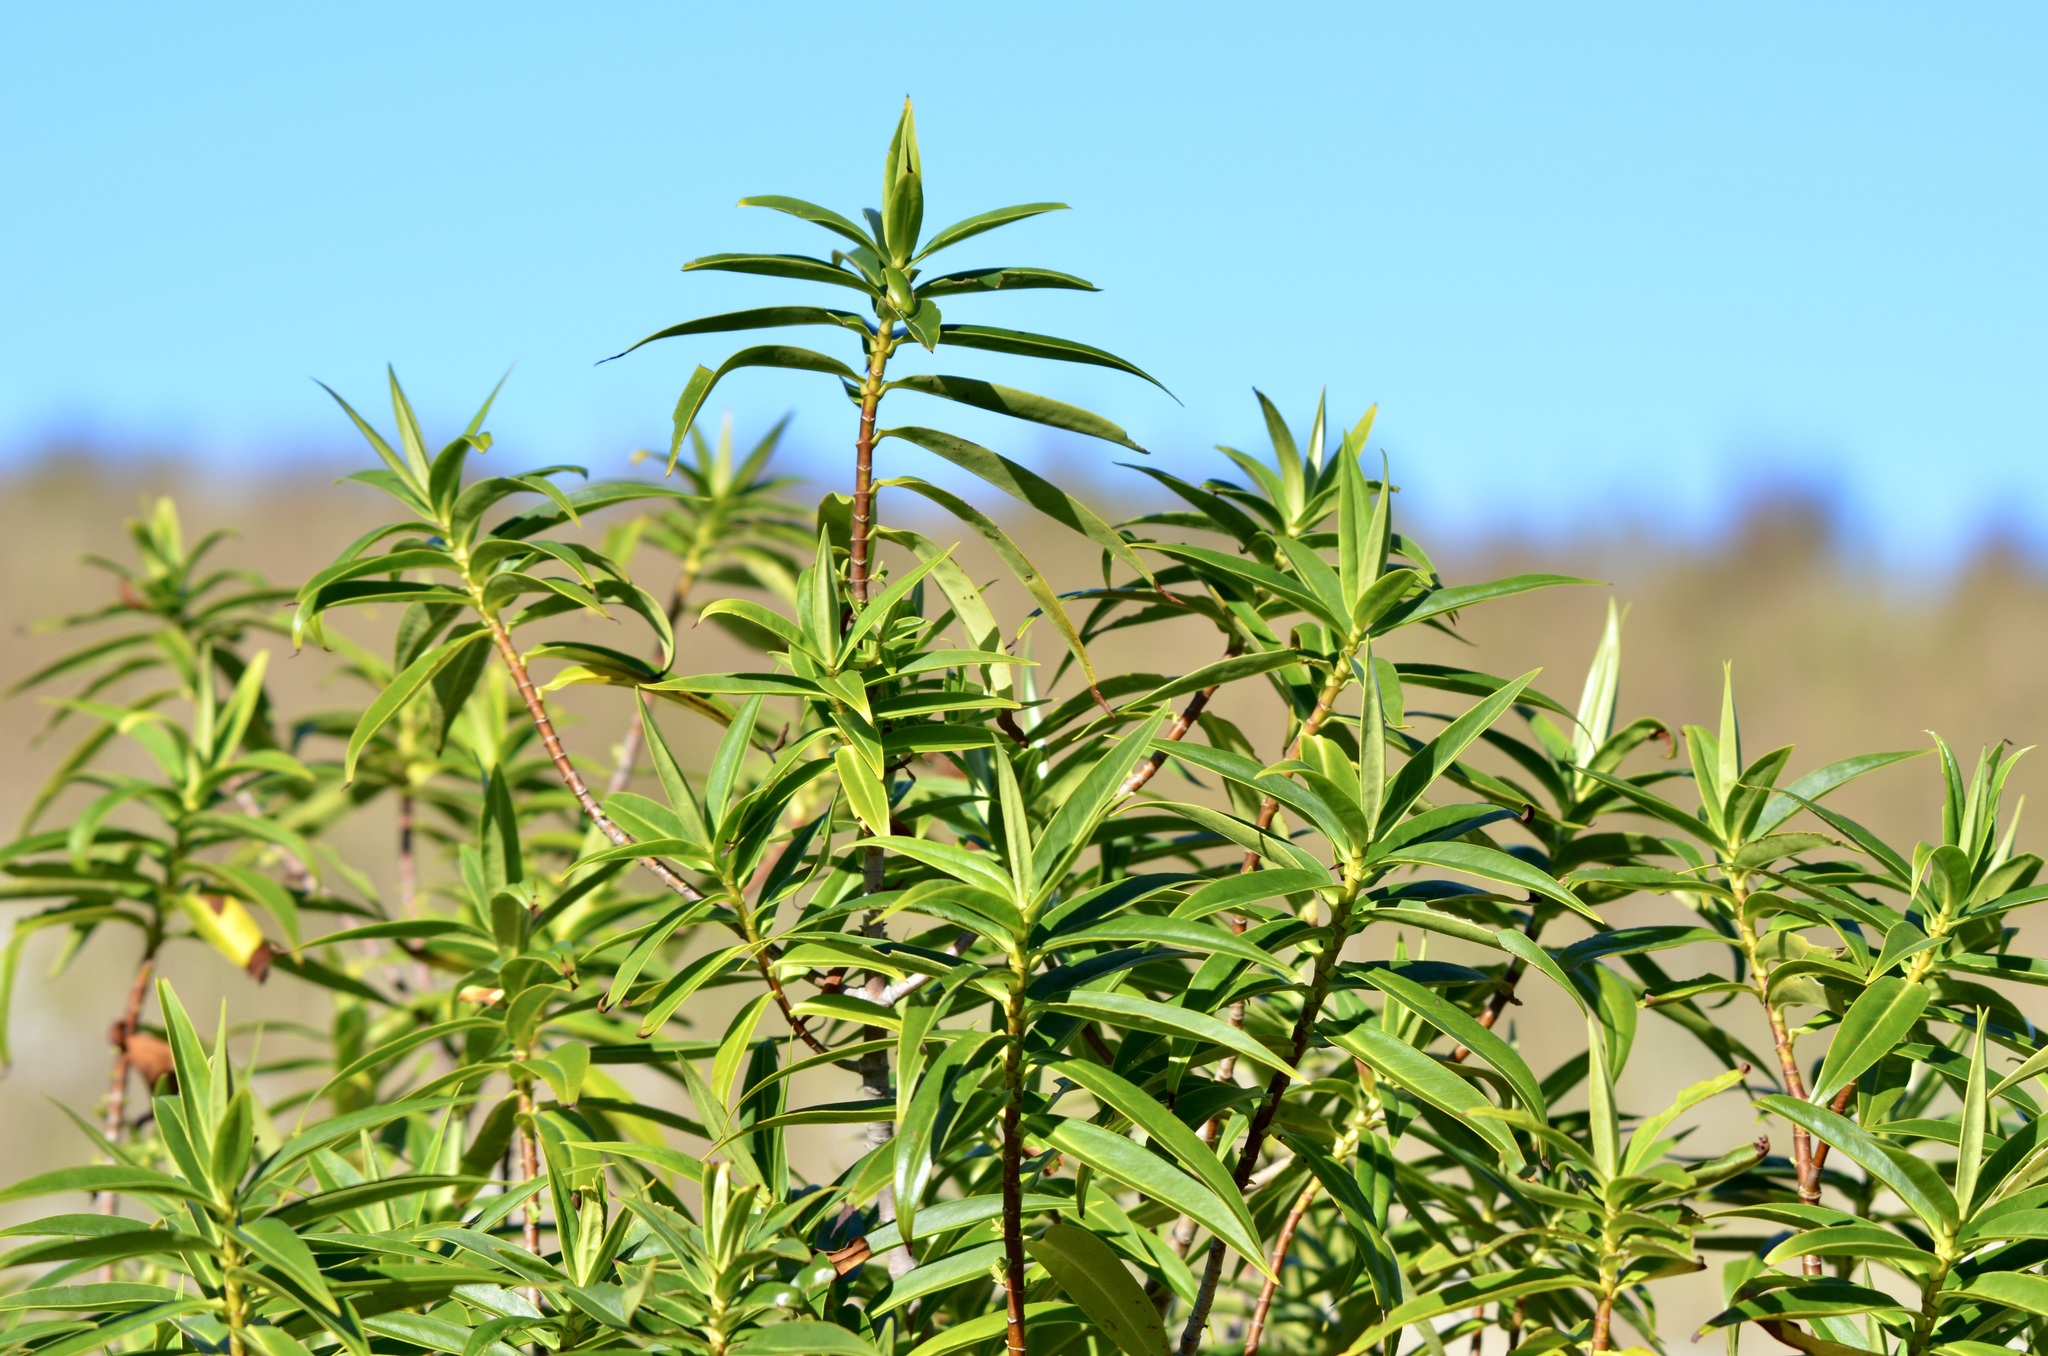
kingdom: Plantae
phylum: Tracheophyta
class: Magnoliopsida
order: Lamiales
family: Plantaginaceae
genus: Veronica
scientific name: Veronica salicifolia
